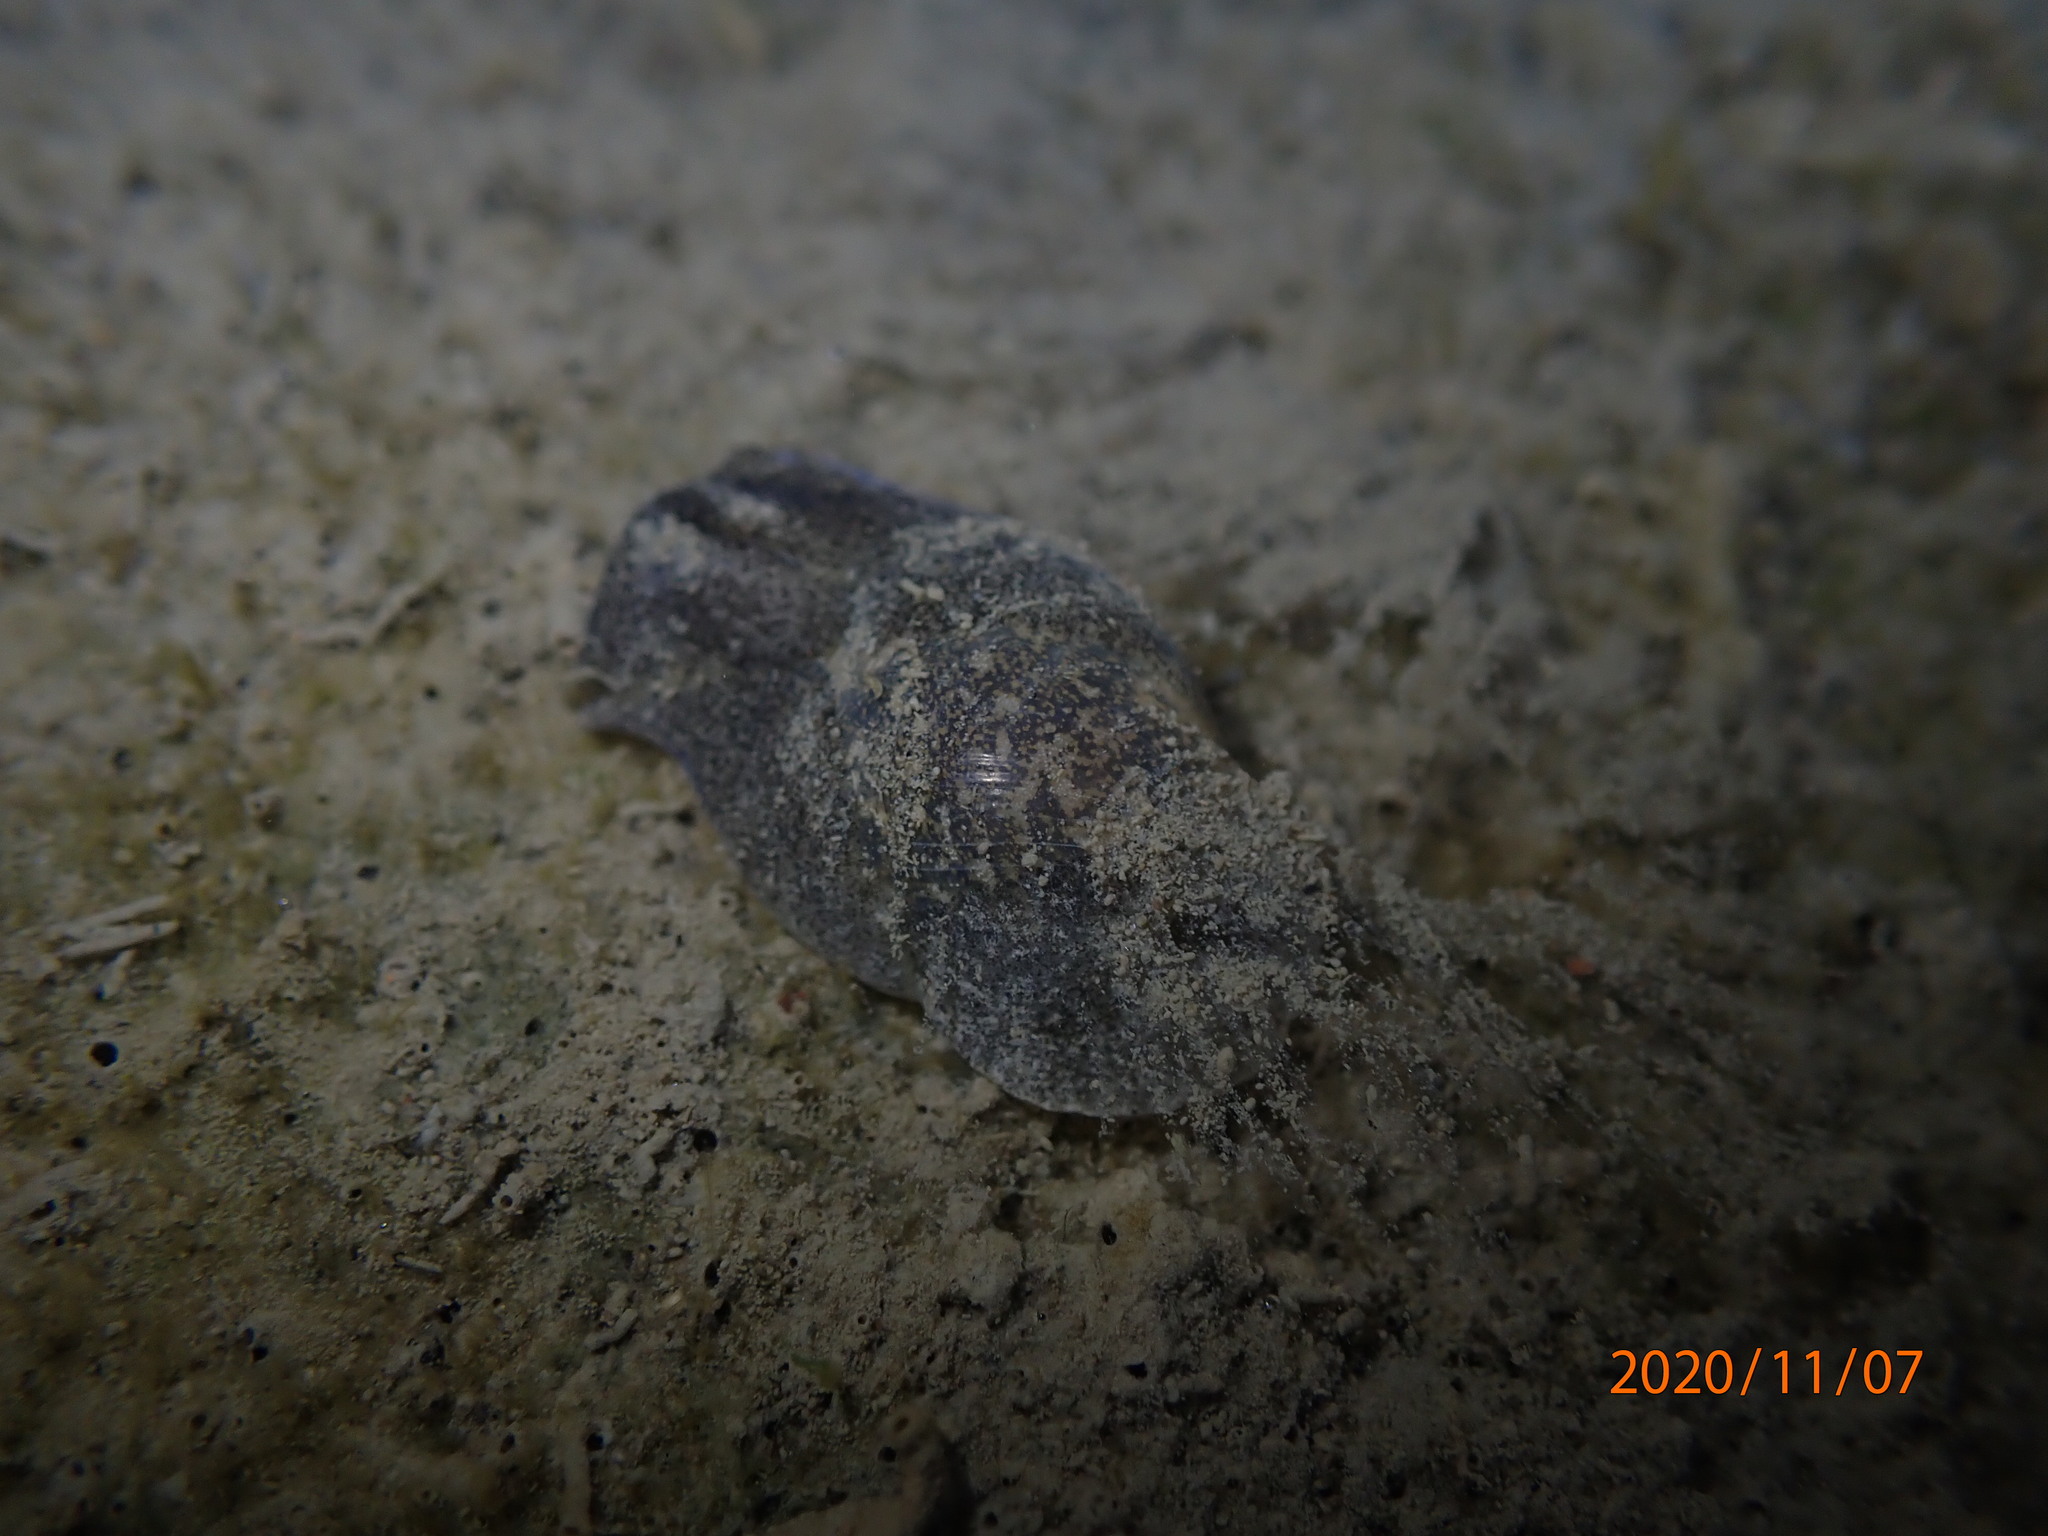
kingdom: Animalia
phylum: Mollusca
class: Gastropoda
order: Cephalaspidea
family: Haminoeidae
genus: Papawera
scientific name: Papawera zelandiae
